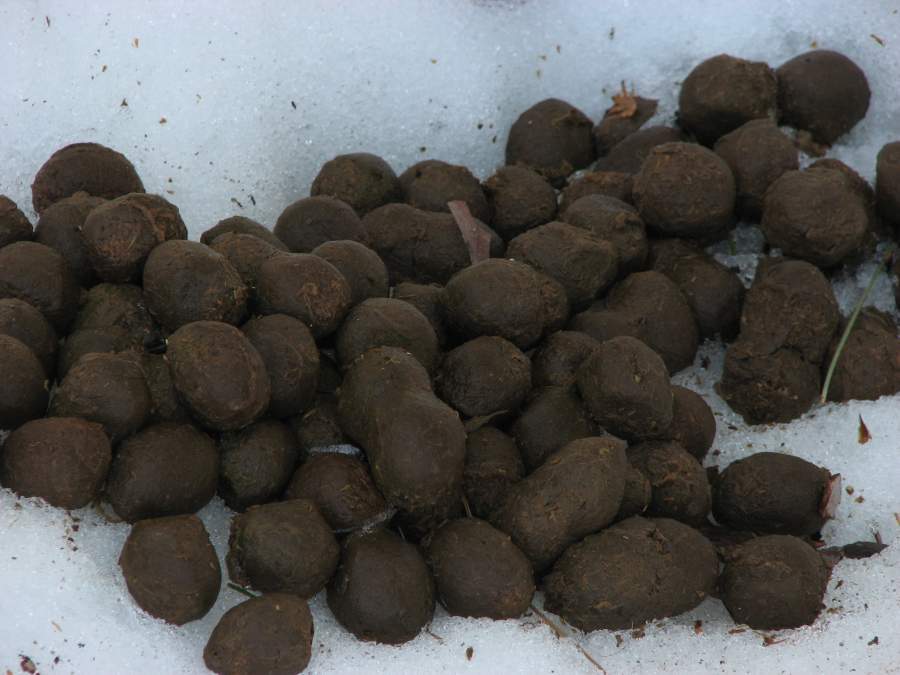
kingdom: Animalia
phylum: Chordata
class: Mammalia
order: Artiodactyla
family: Cervidae
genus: Alces
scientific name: Alces alces
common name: Moose
